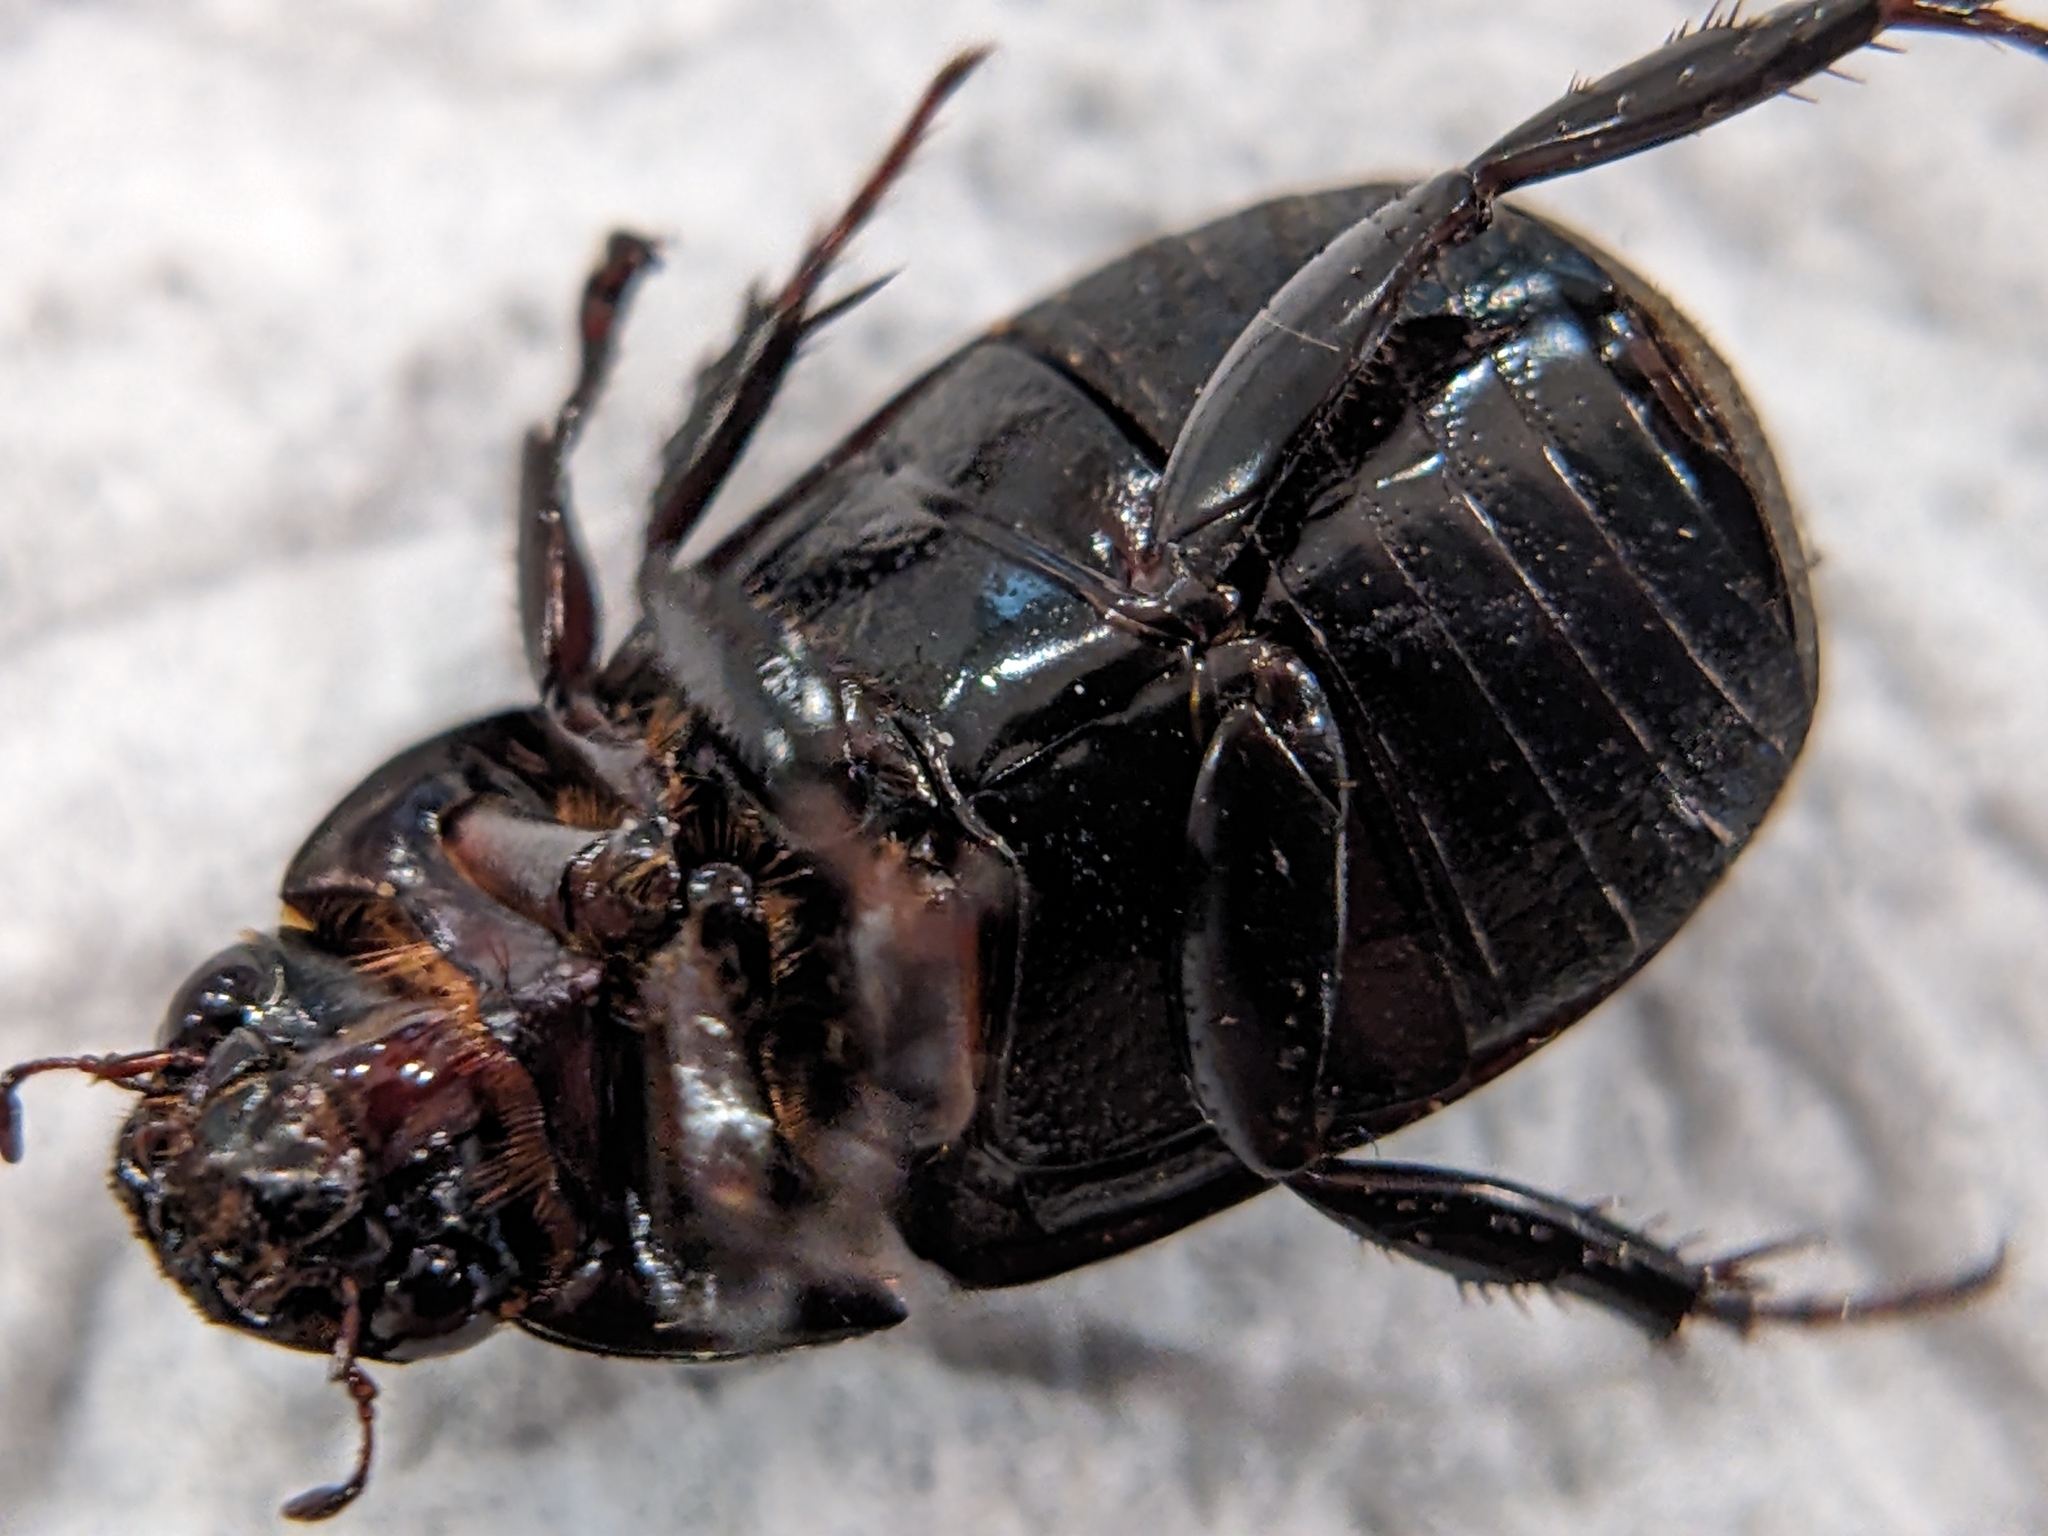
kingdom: Animalia
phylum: Arthropoda
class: Insecta
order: Coleoptera
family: Scarabaeidae
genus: Dyscinetus
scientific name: Dyscinetus morator
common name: Rice beetle
